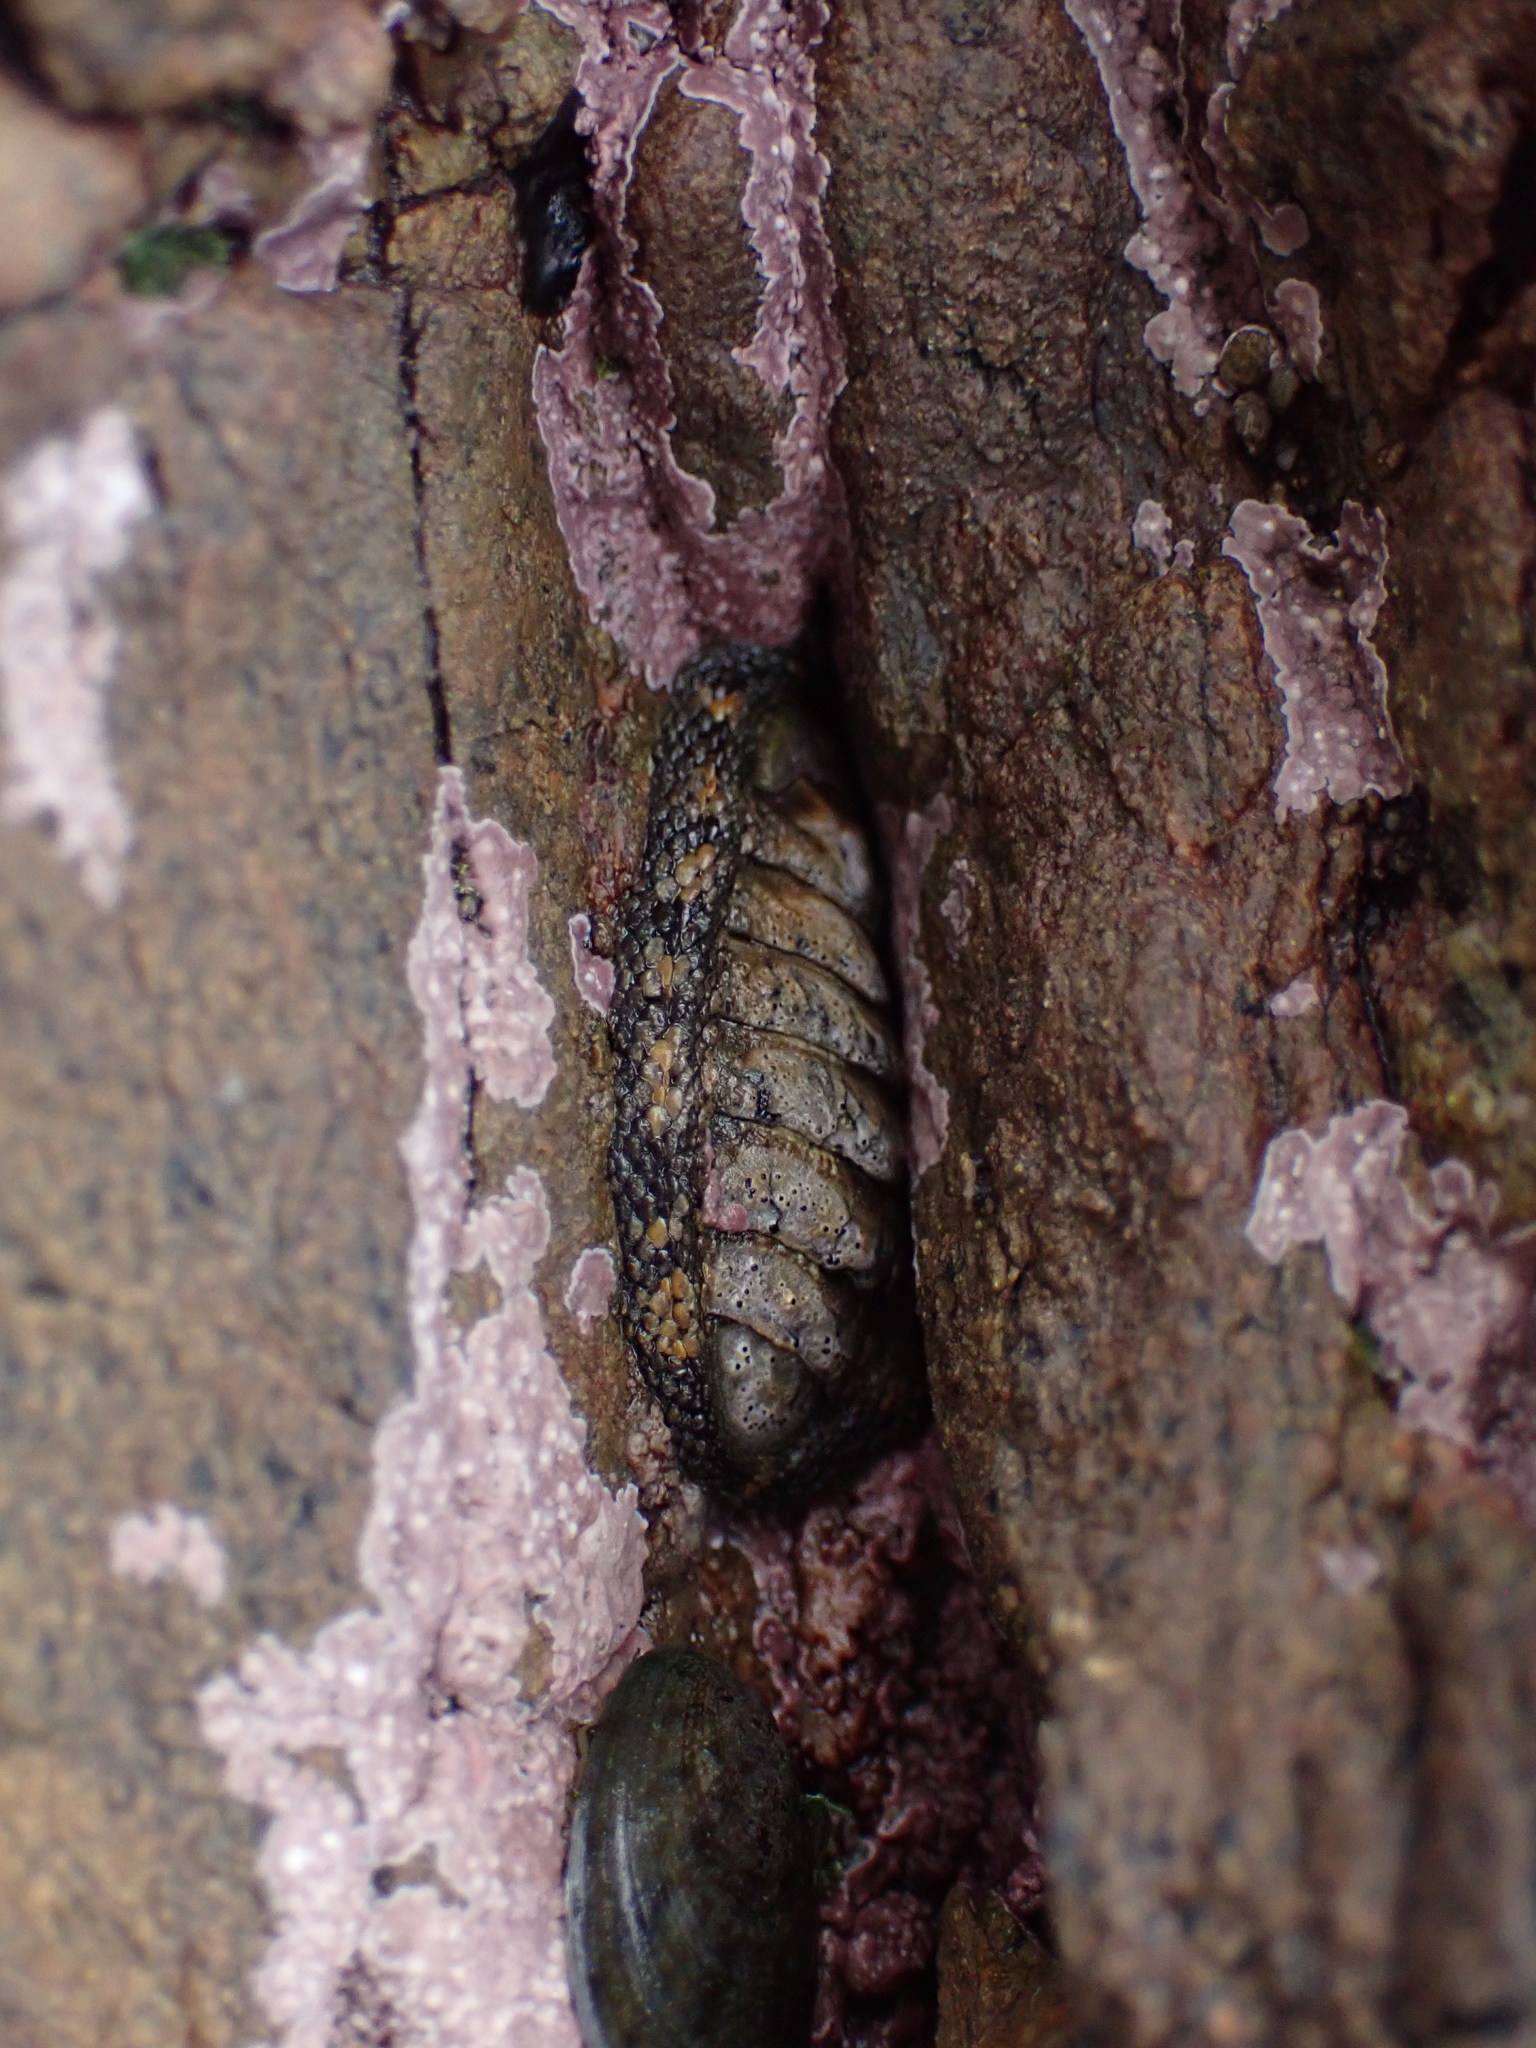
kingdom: Animalia
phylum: Mollusca
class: Polyplacophora
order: Chitonida
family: Chitonidae
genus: Sypharochiton
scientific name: Sypharochiton pelliserpentis
